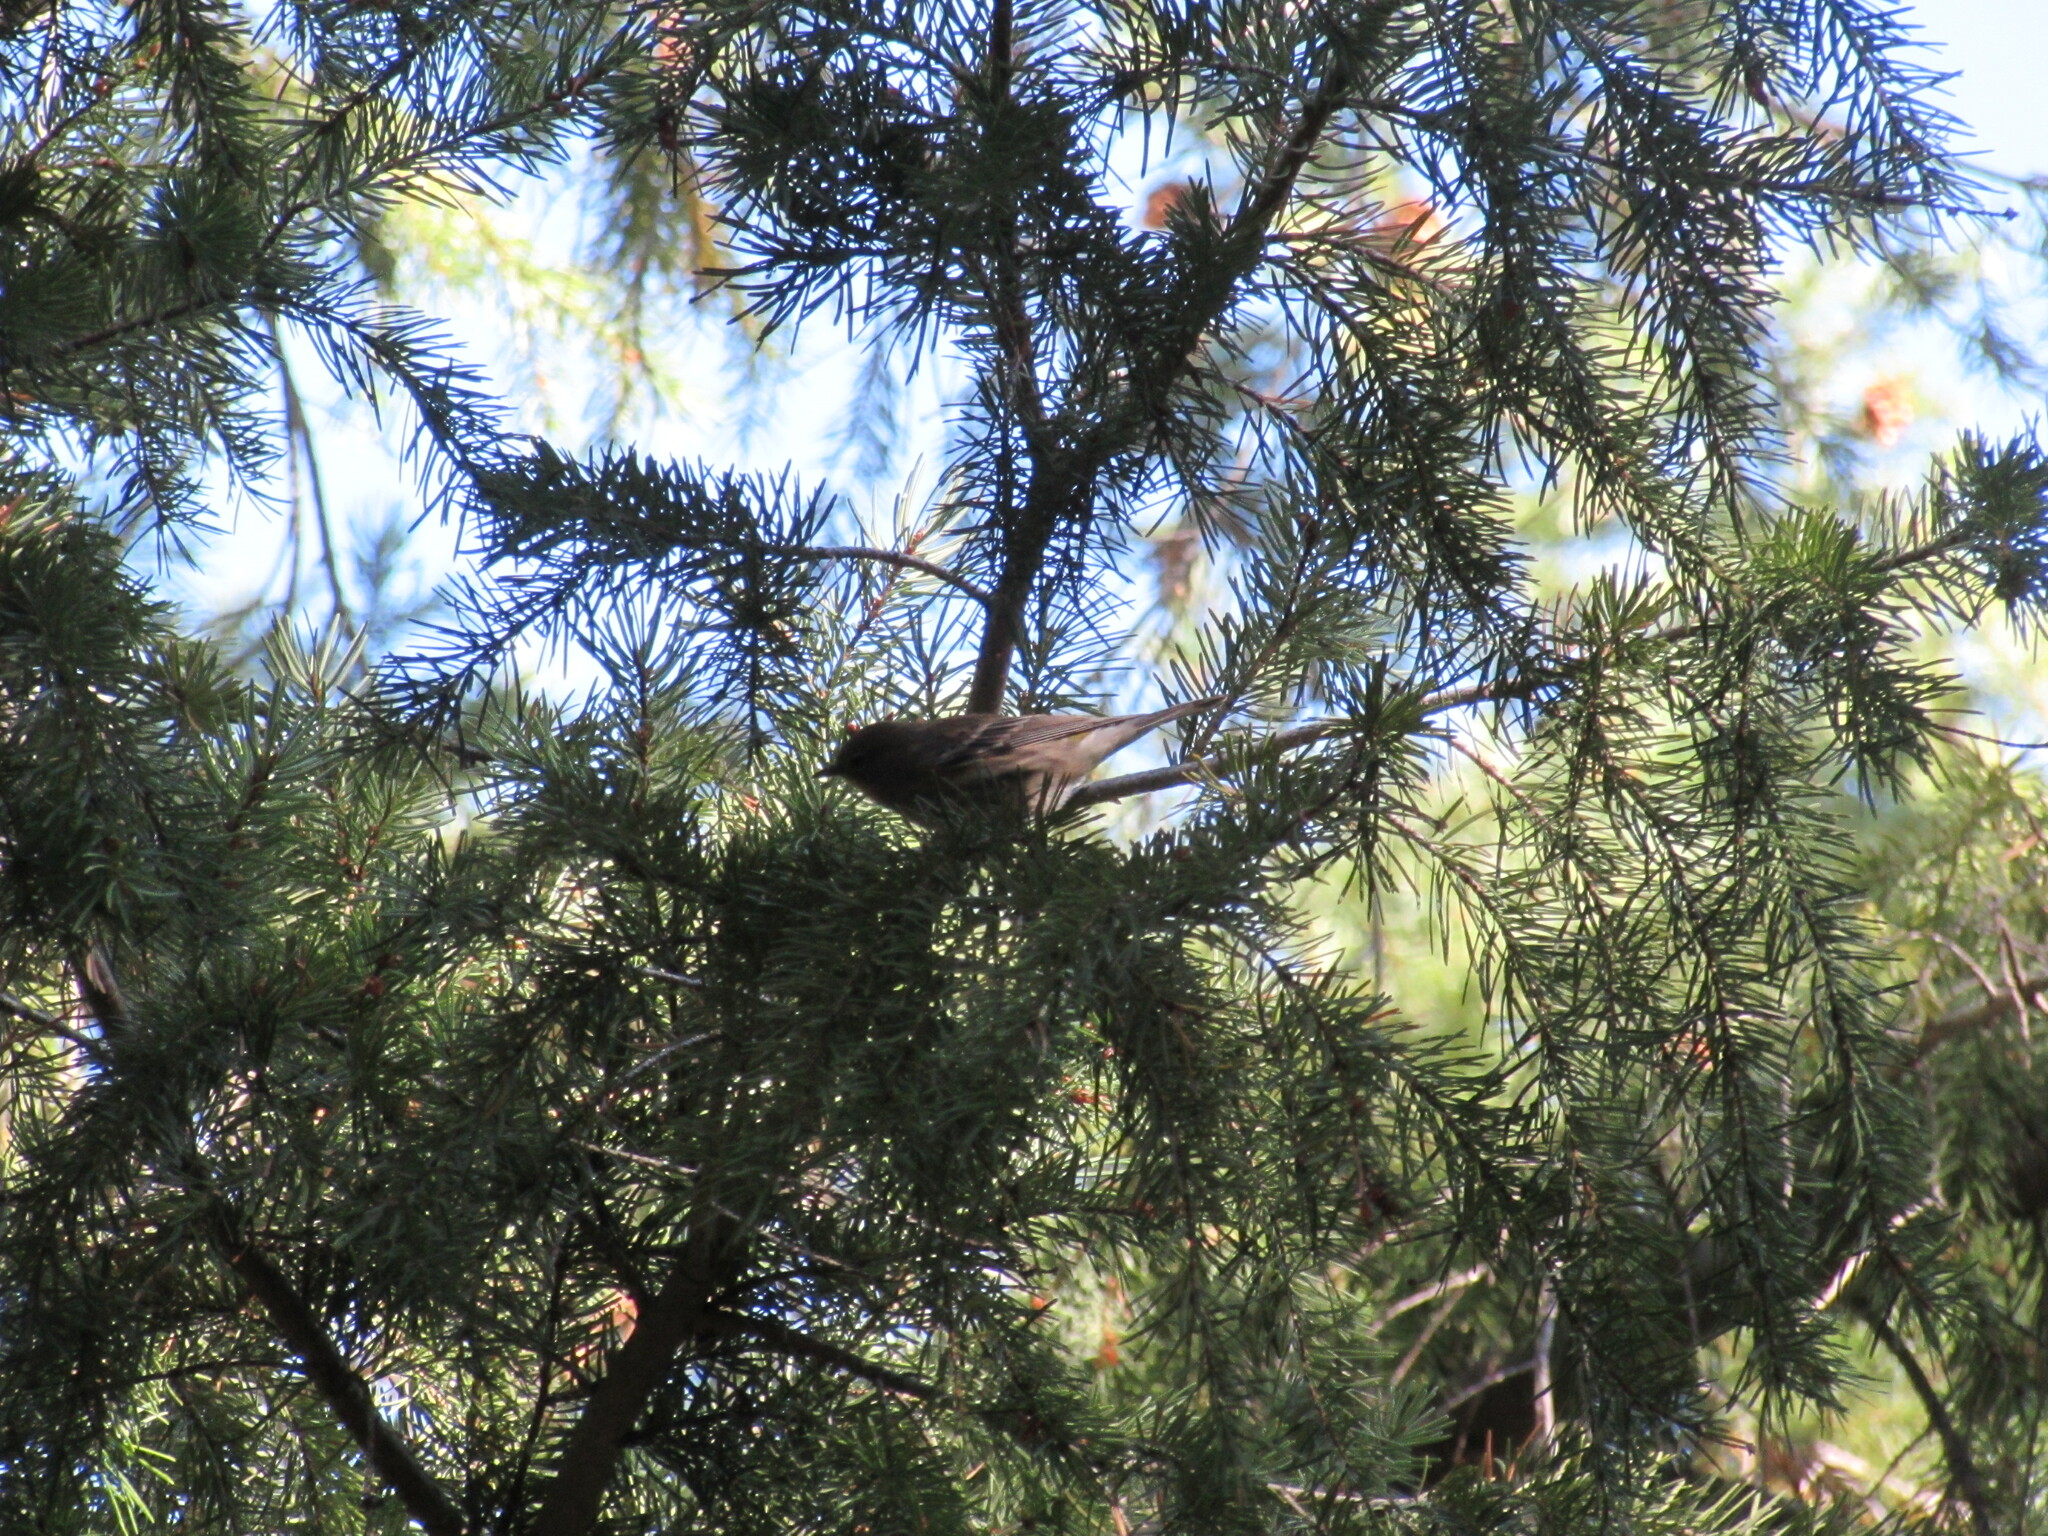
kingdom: Animalia
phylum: Chordata
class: Aves
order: Passeriformes
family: Parulidae
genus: Setophaga
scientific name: Setophaga coronata
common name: Myrtle warbler
